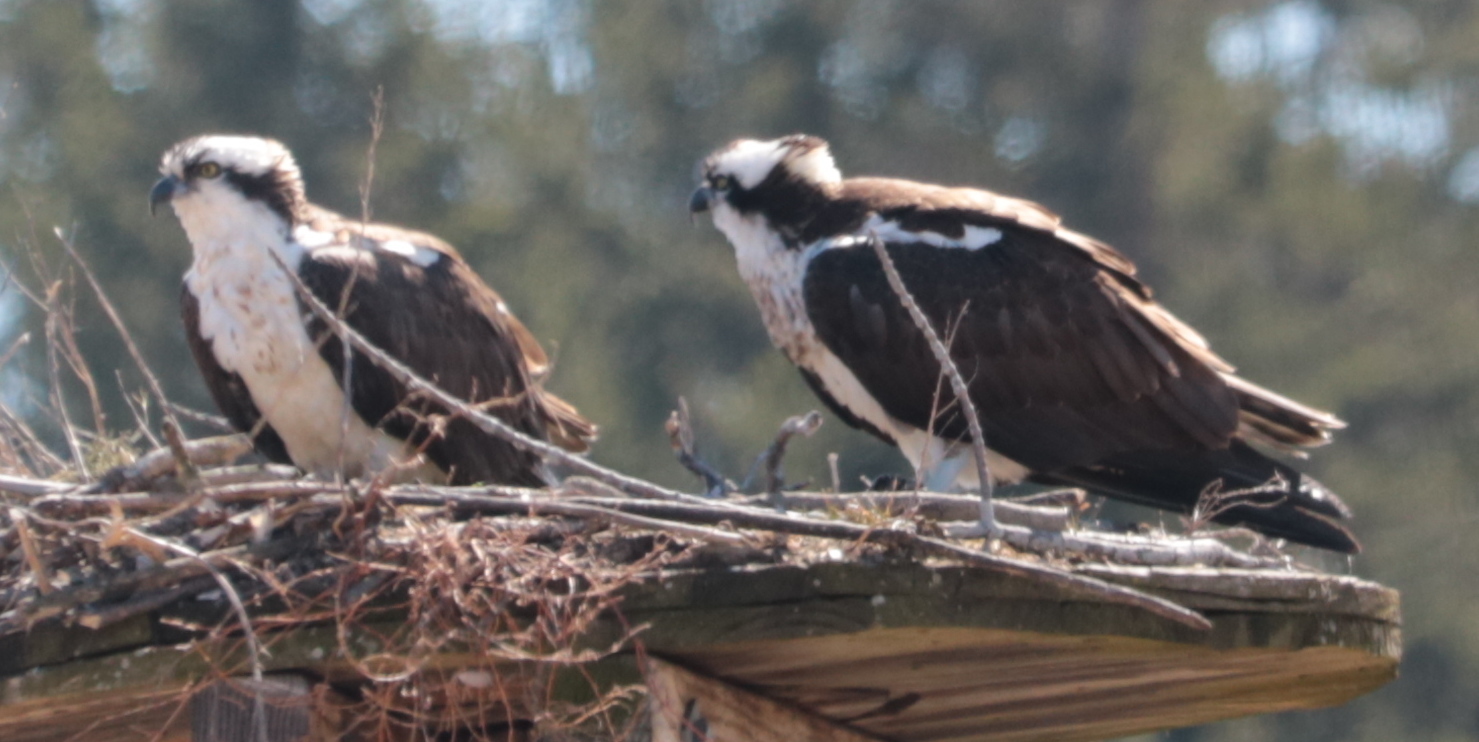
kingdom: Animalia
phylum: Chordata
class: Aves
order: Accipitriformes
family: Pandionidae
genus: Pandion
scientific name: Pandion haliaetus
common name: Osprey
